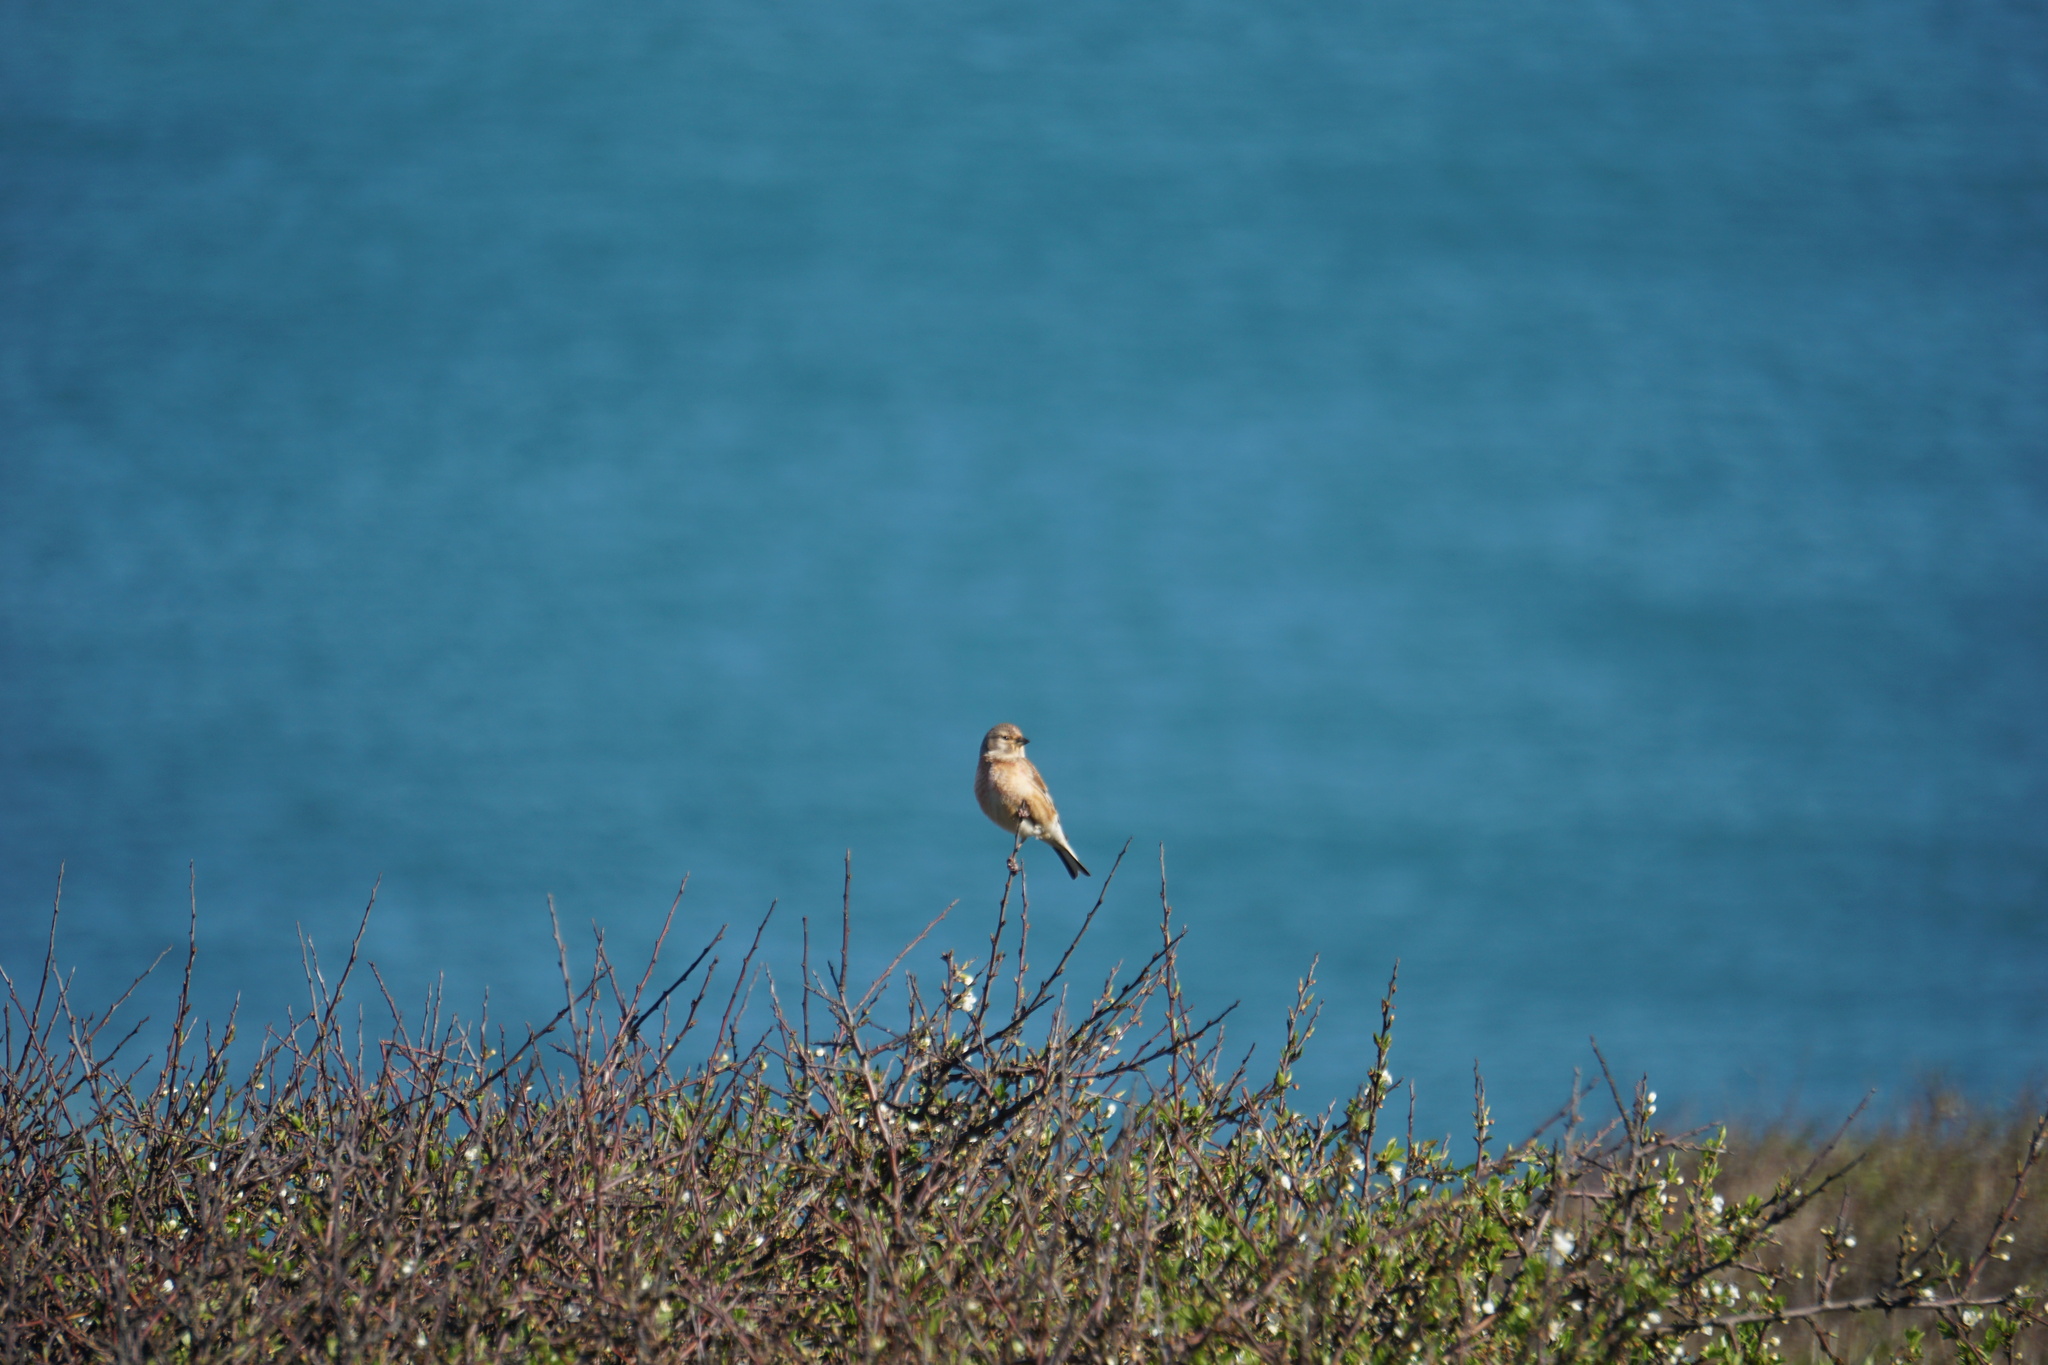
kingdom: Animalia
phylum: Chordata
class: Aves
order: Passeriformes
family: Fringillidae
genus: Linaria
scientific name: Linaria cannabina
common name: Common linnet
